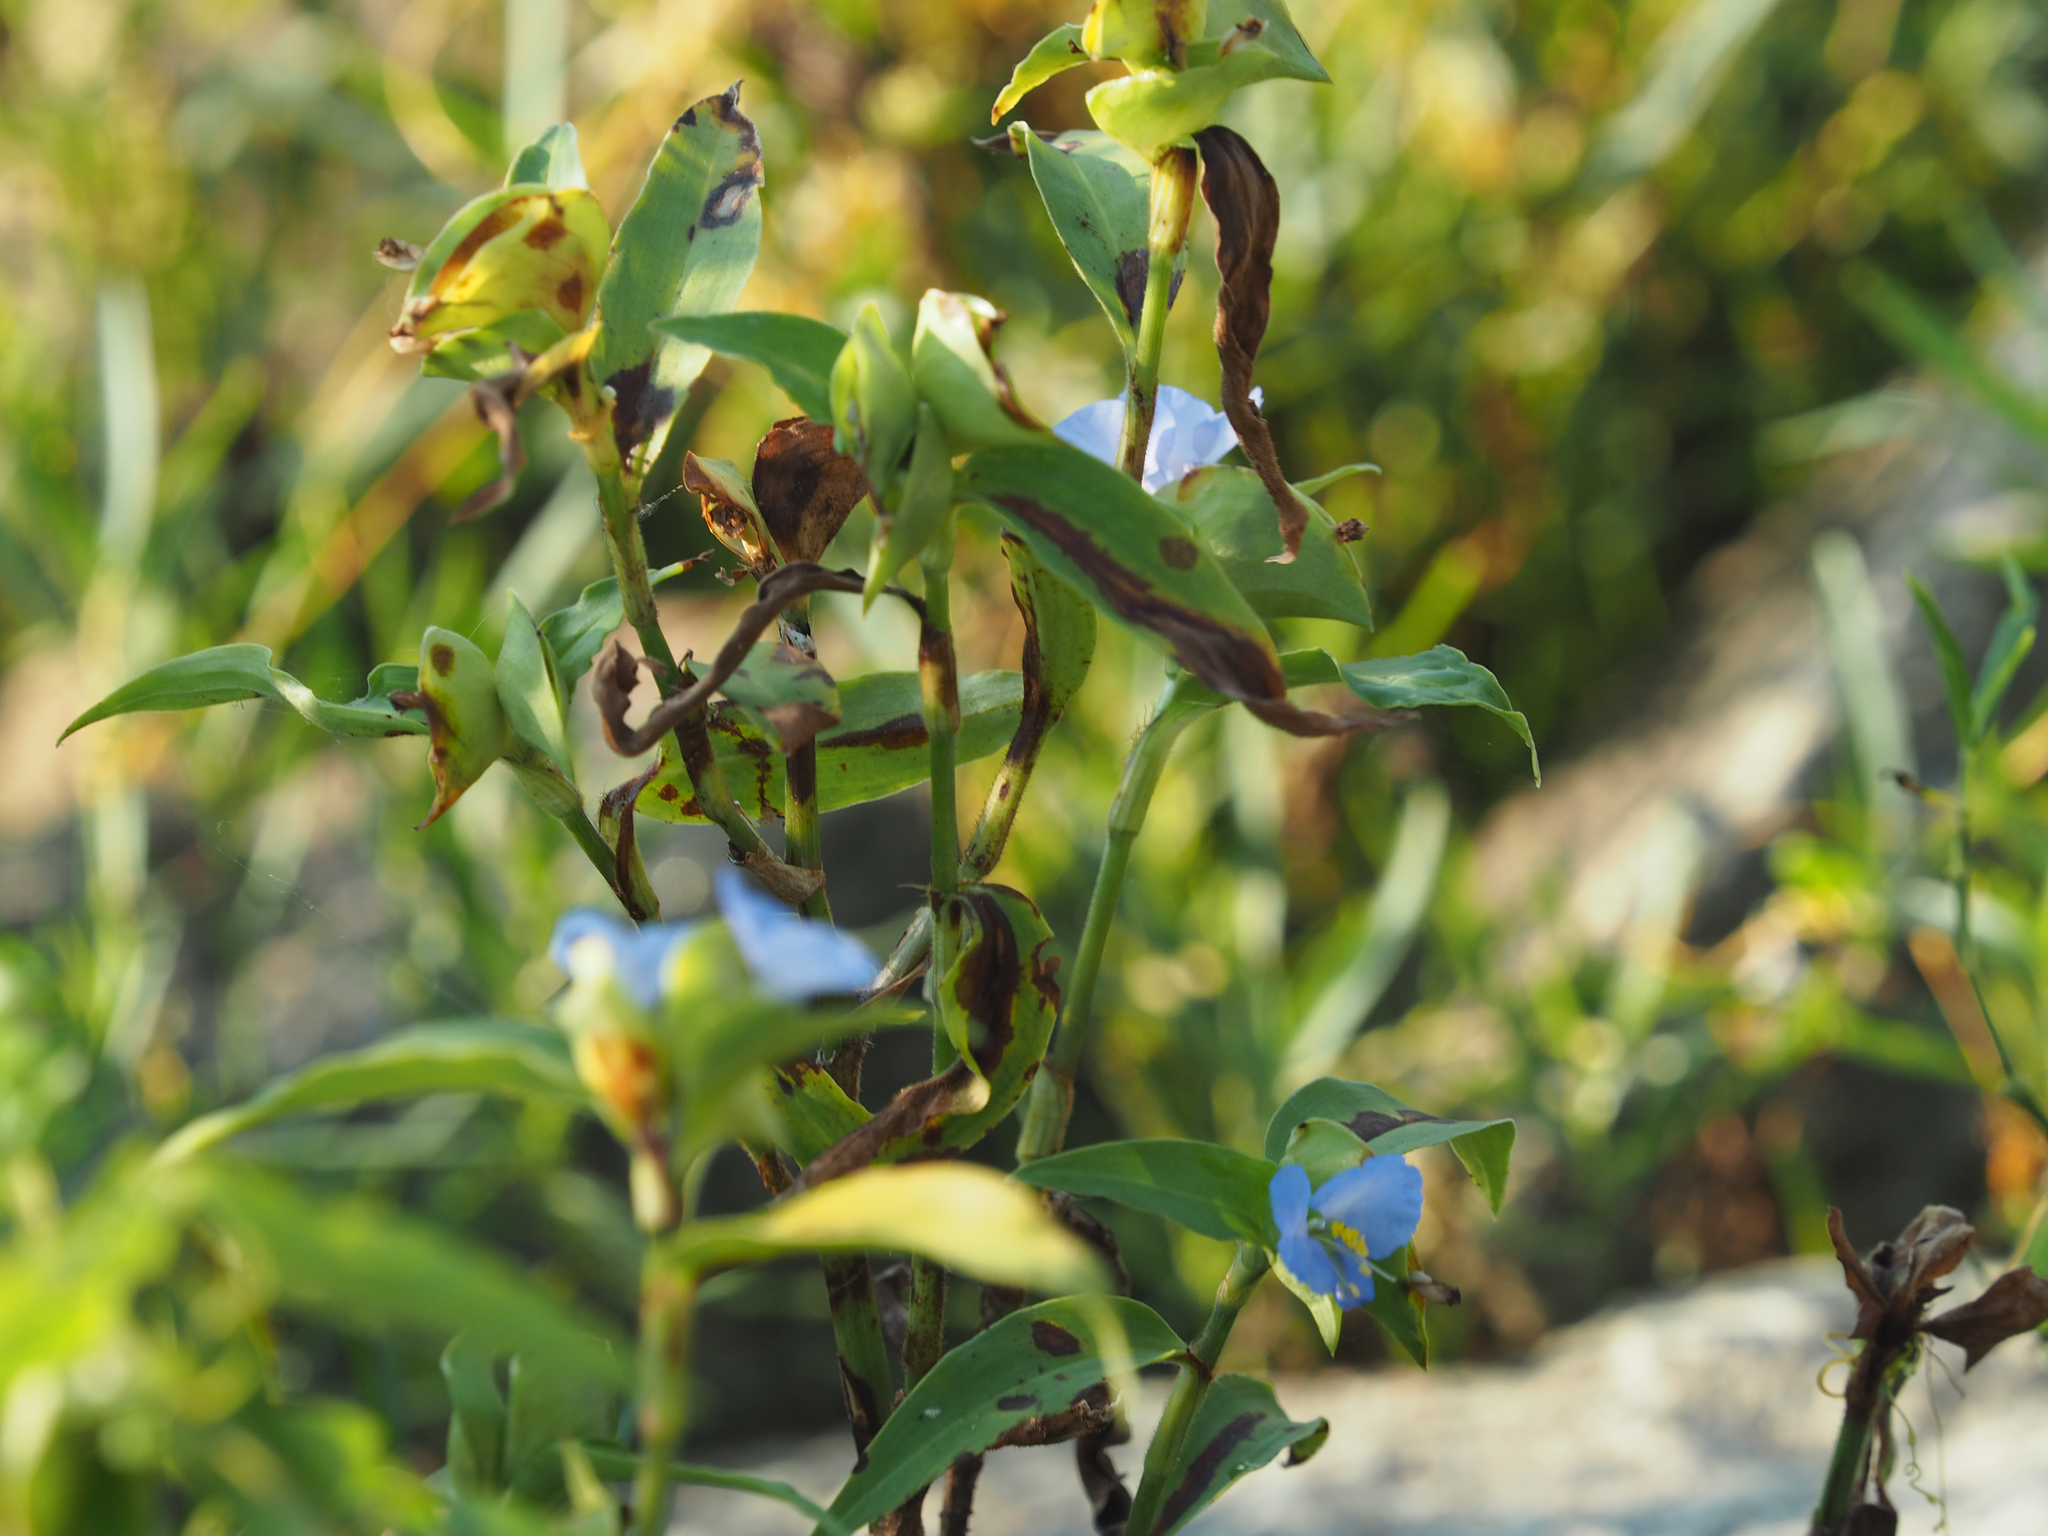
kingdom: Plantae
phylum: Tracheophyta
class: Liliopsida
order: Commelinales
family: Commelinaceae
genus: Commelina
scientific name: Commelina virginica
